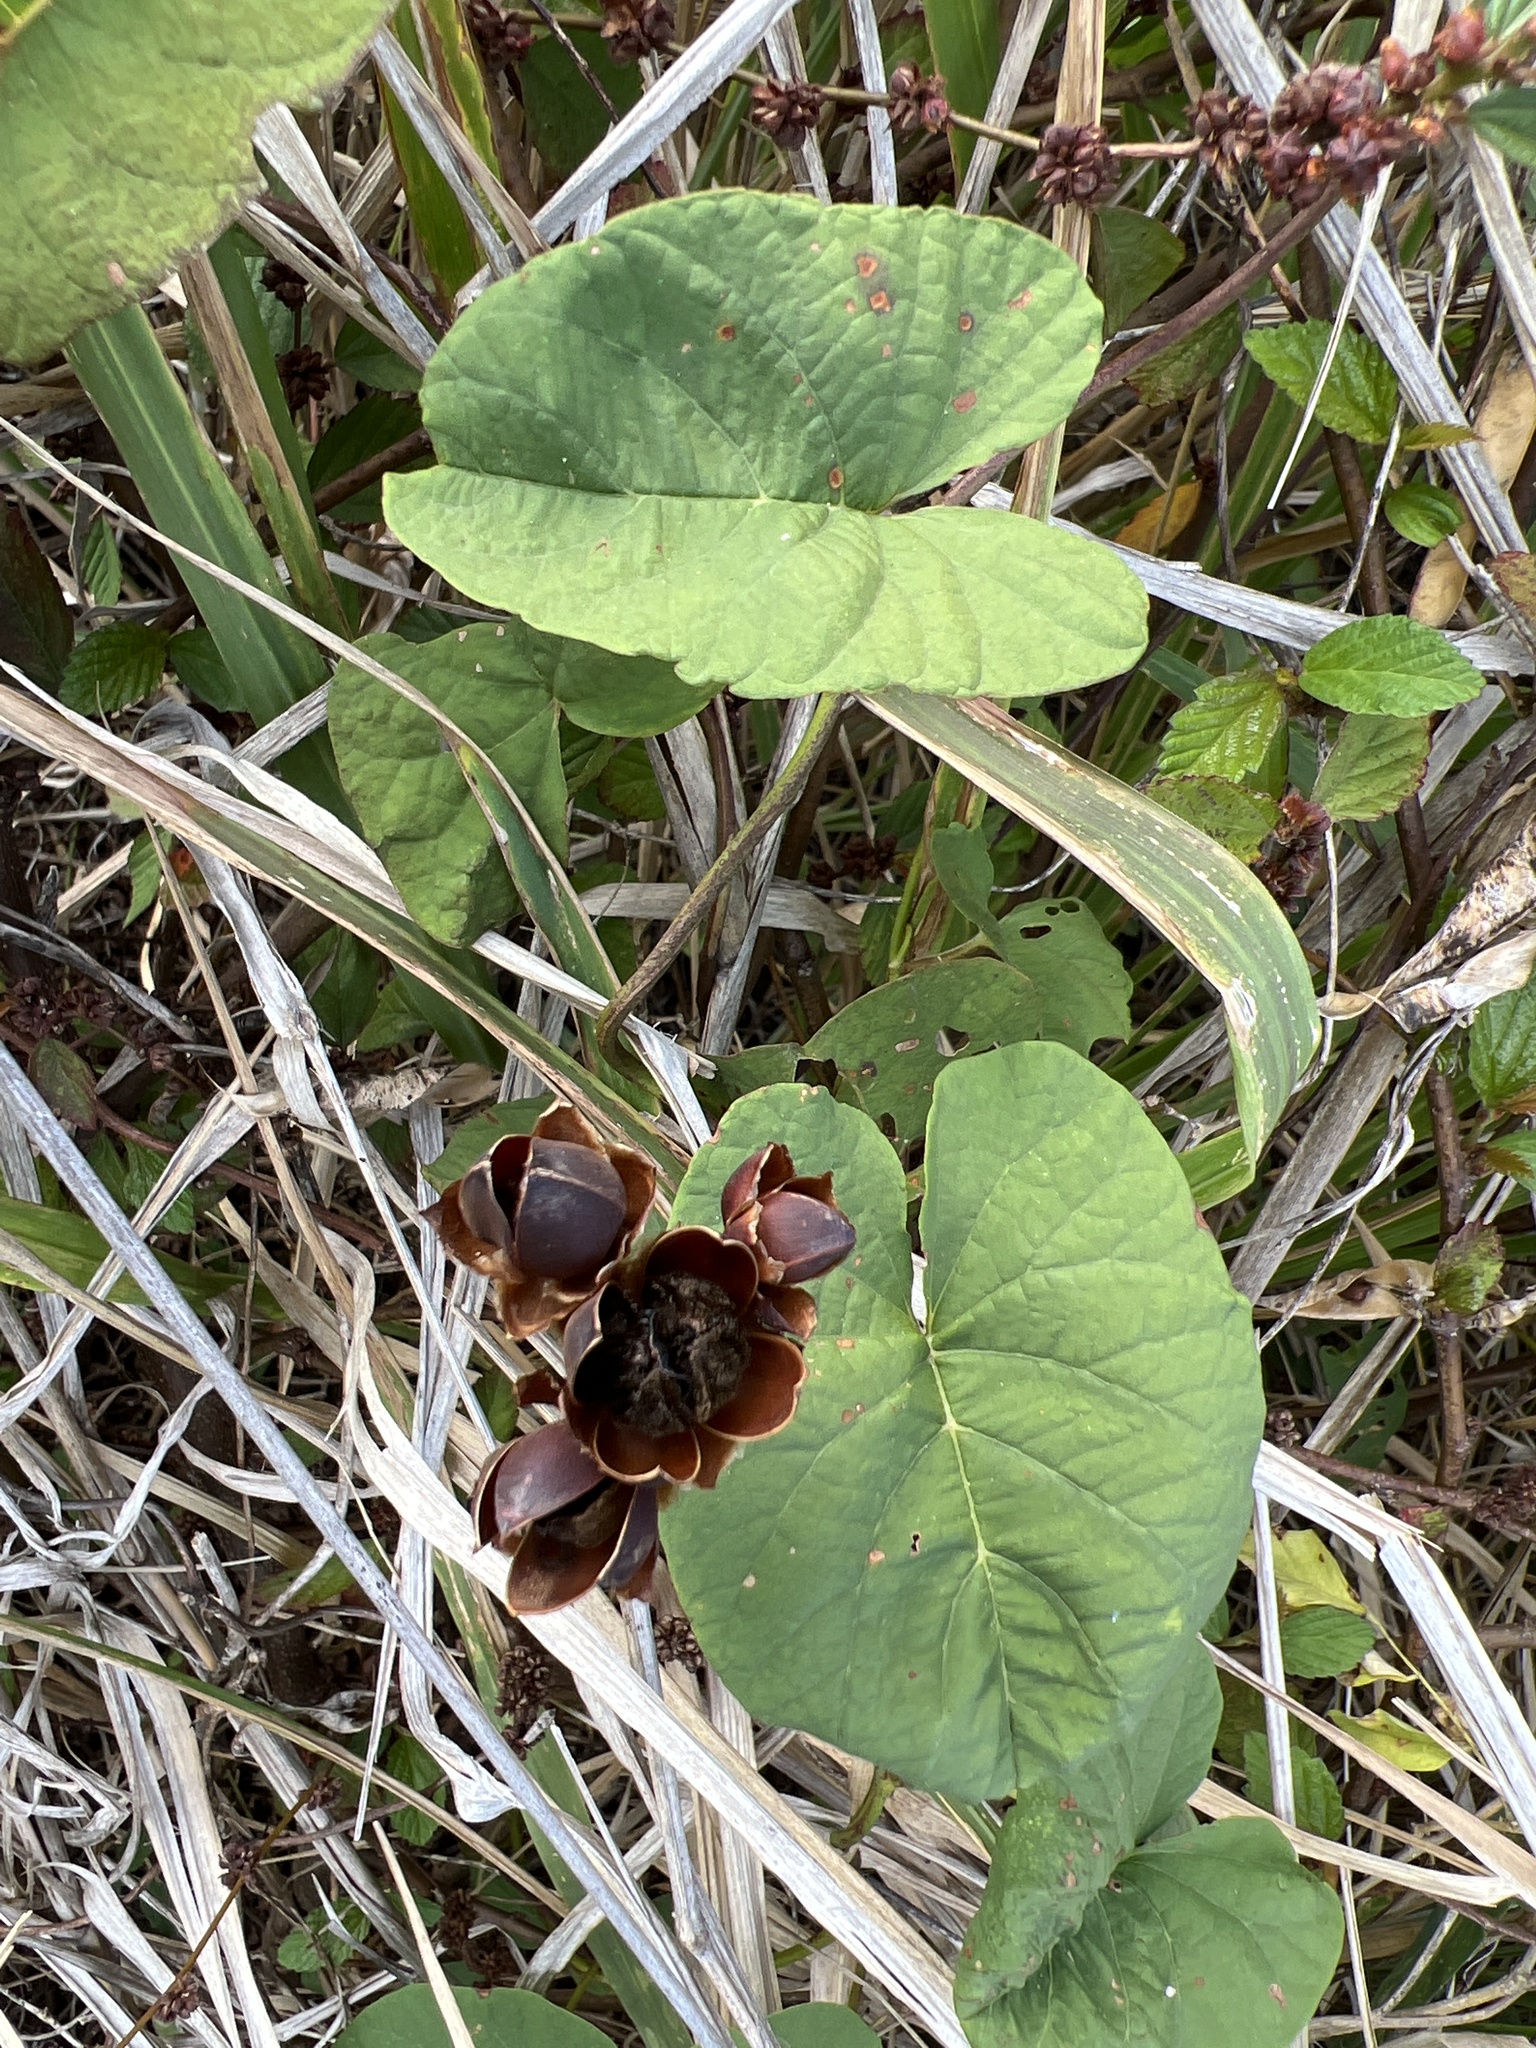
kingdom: Plantae
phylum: Tracheophyta
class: Magnoliopsida
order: Solanales
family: Convolvulaceae
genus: Camonea
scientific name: Camonea umbellata
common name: Hogvine
